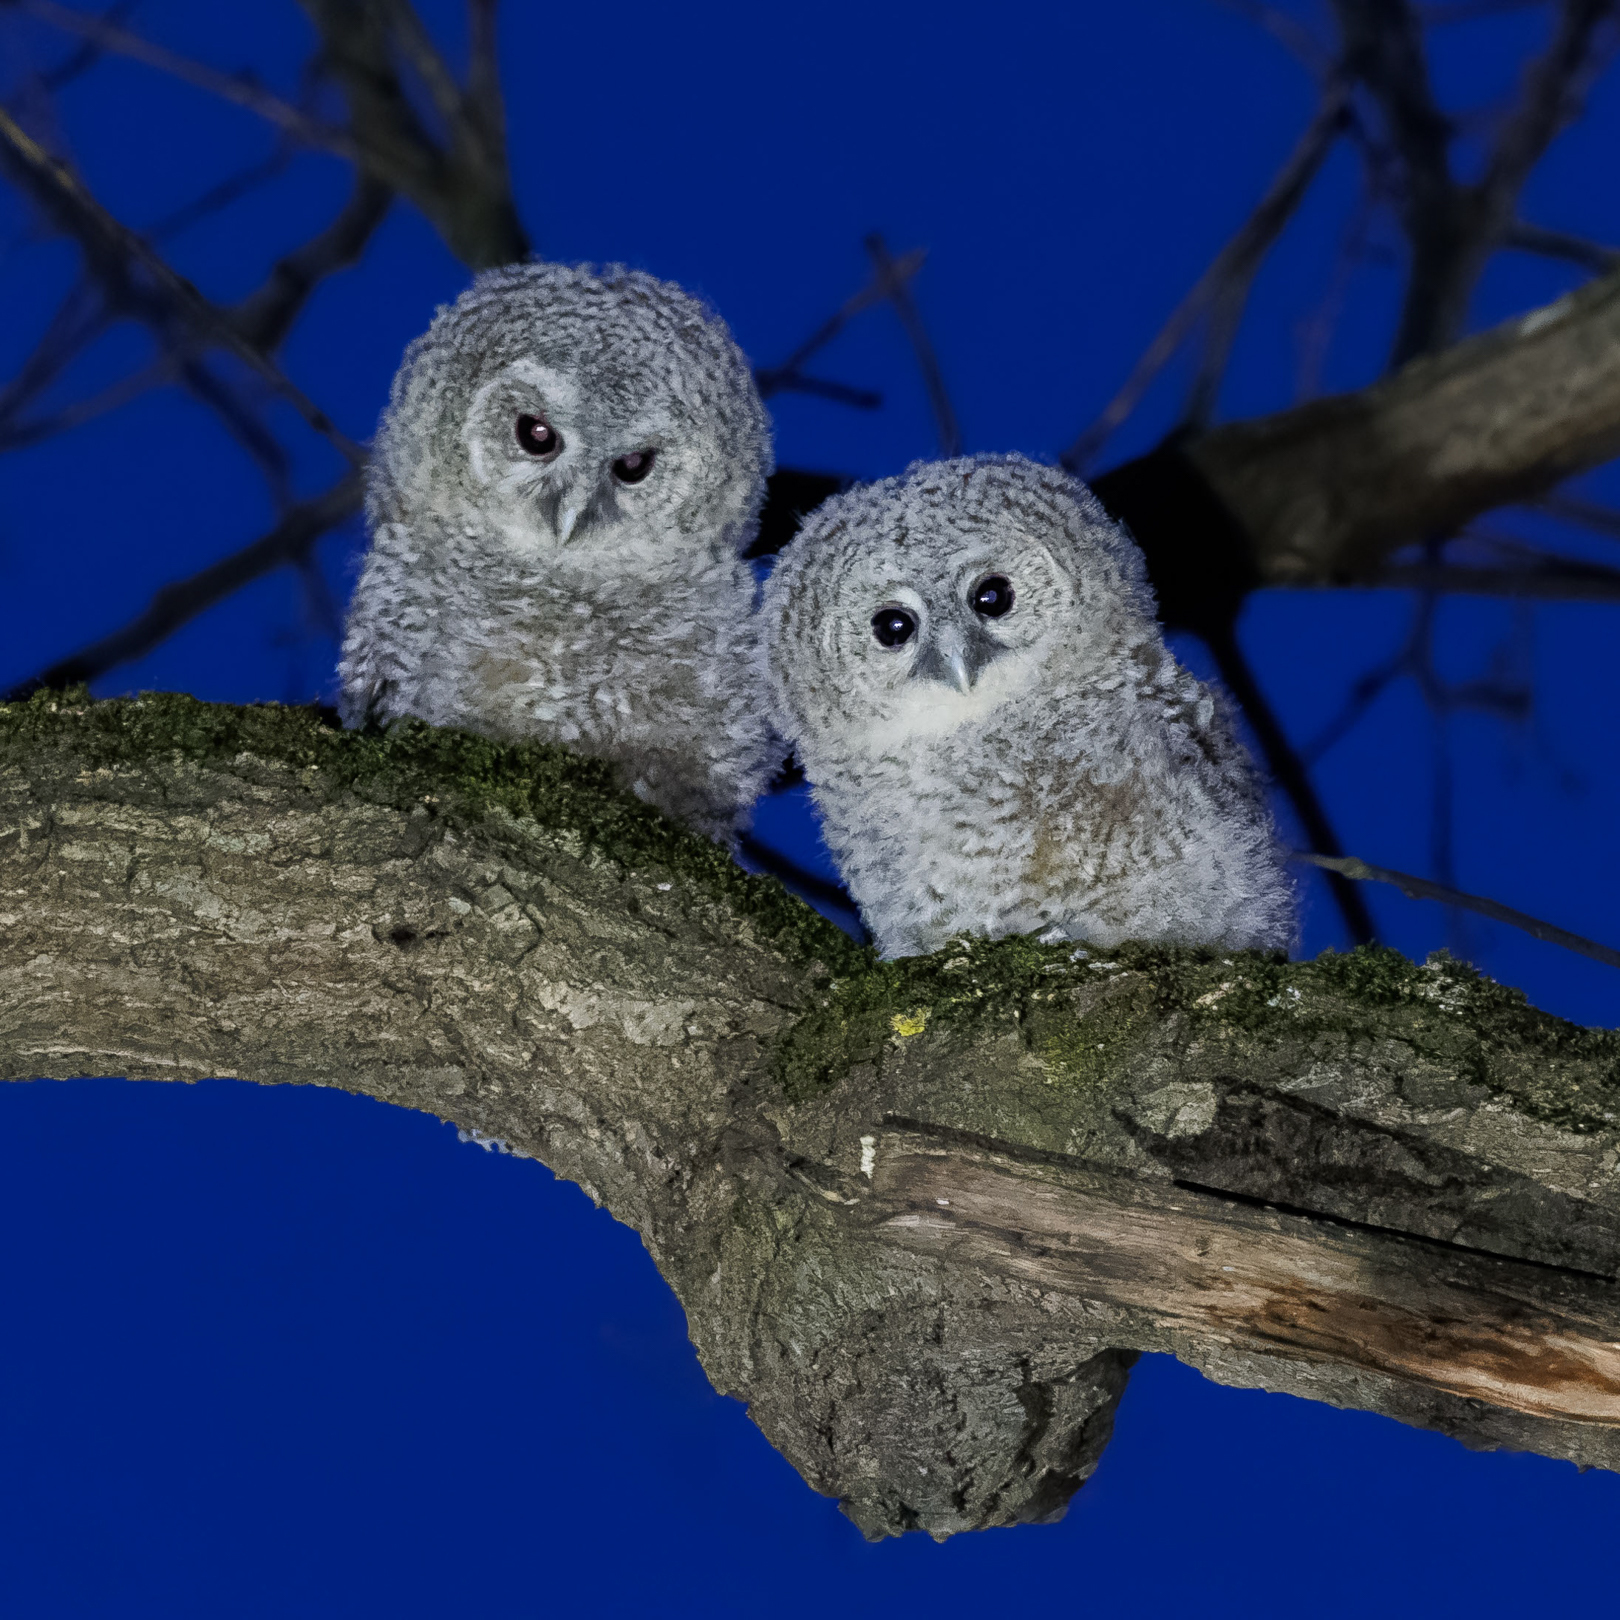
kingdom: Animalia
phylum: Chordata
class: Aves
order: Strigiformes
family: Strigidae
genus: Strix
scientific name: Strix aluco
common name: Tawny owl
